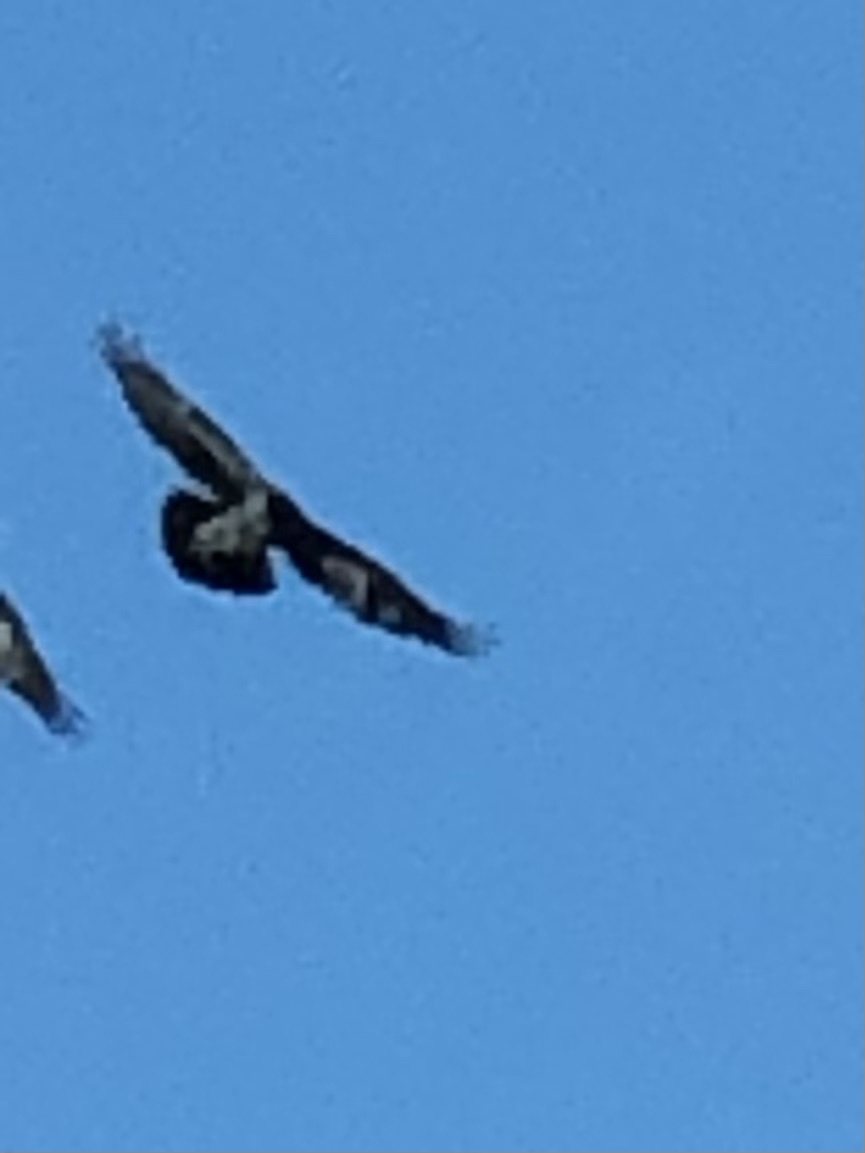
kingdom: Animalia
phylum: Chordata
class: Aves
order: Passeriformes
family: Corvidae
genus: Corvus
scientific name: Corvus corax
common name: Common raven
